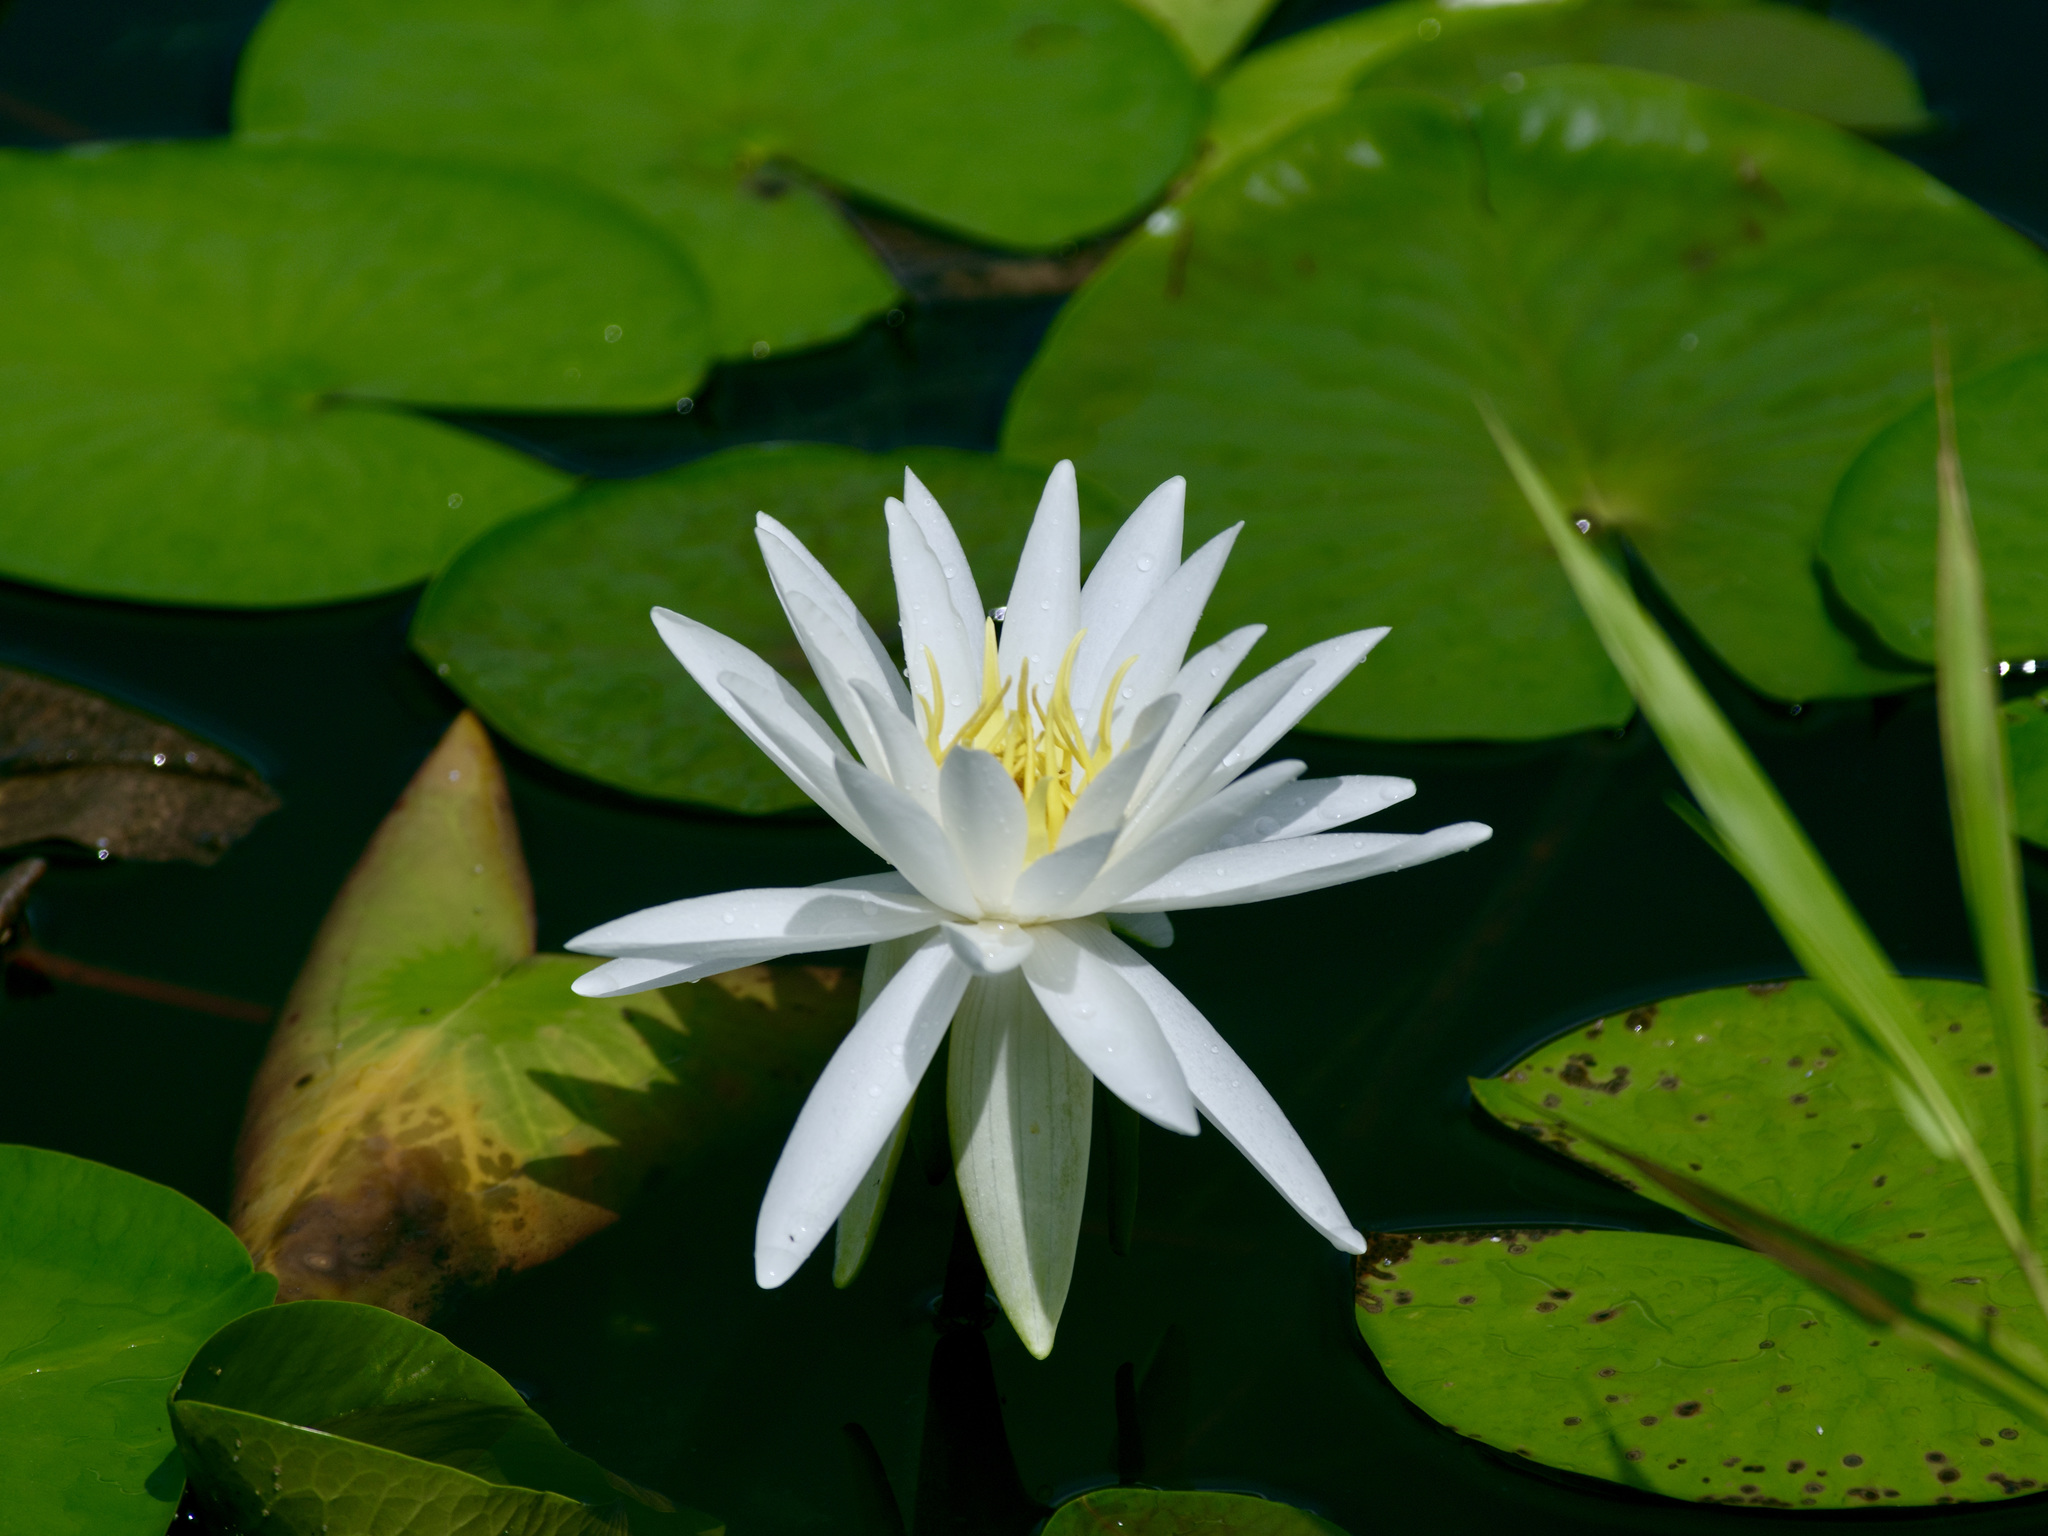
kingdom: Plantae
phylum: Tracheophyta
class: Magnoliopsida
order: Nymphaeales
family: Nymphaeaceae
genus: Nymphaea
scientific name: Nymphaea odorata
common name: Fragrant water-lily
